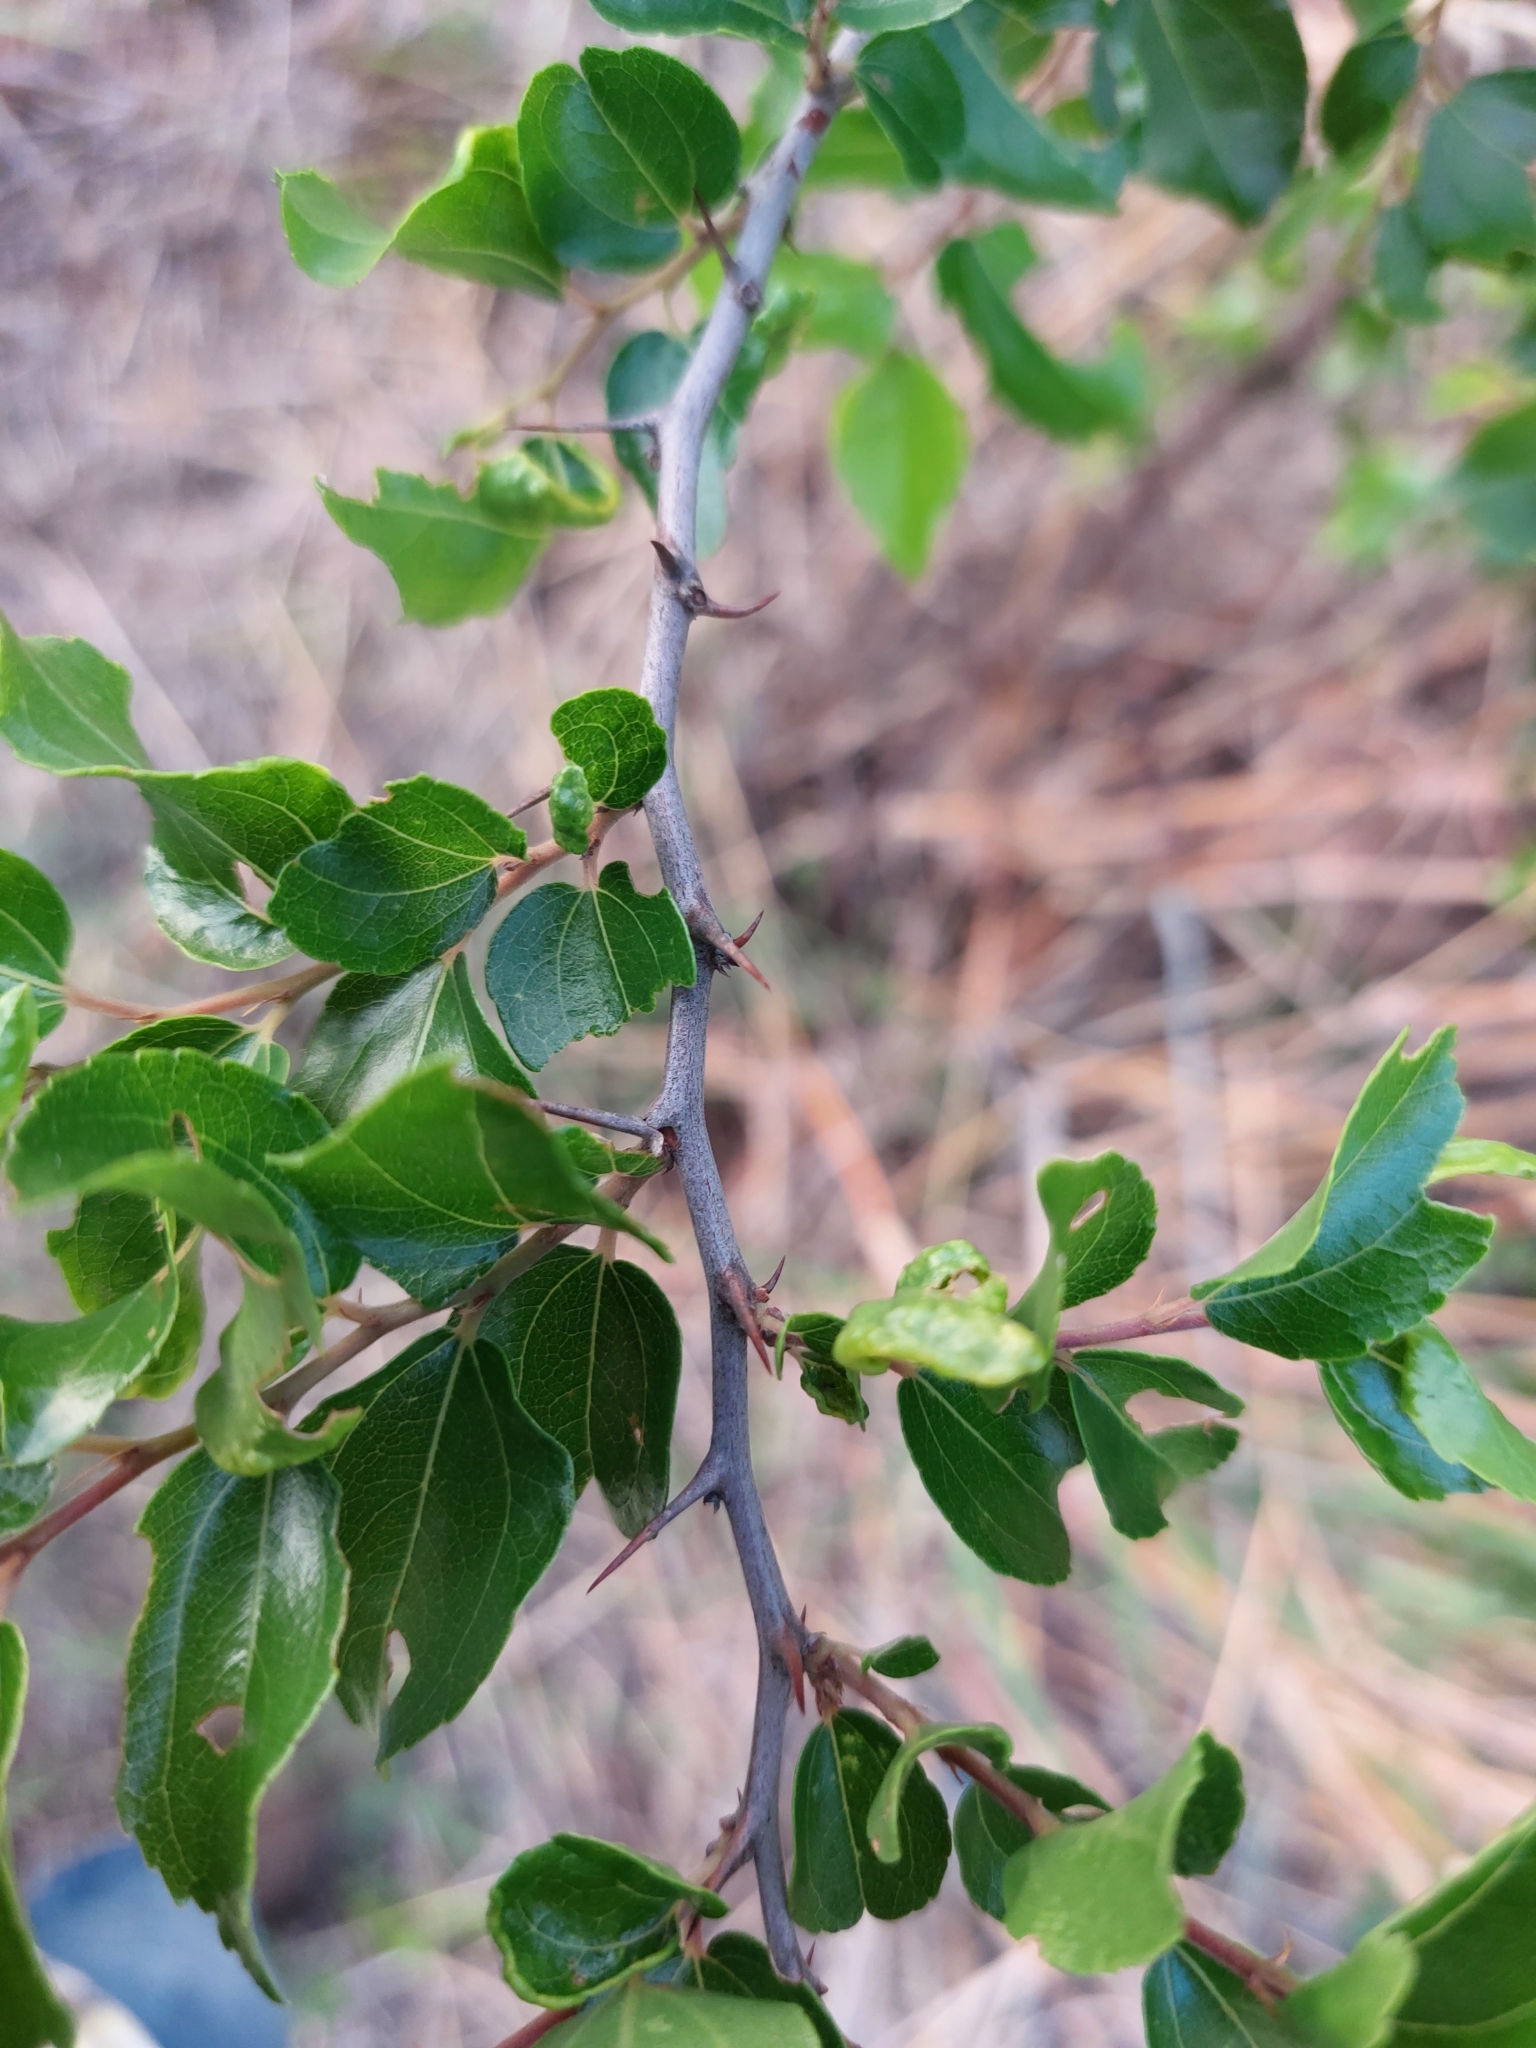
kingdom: Plantae
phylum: Tracheophyta
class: Magnoliopsida
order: Rosales
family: Rhamnaceae
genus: Ziziphus
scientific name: Ziziphus mucronata
